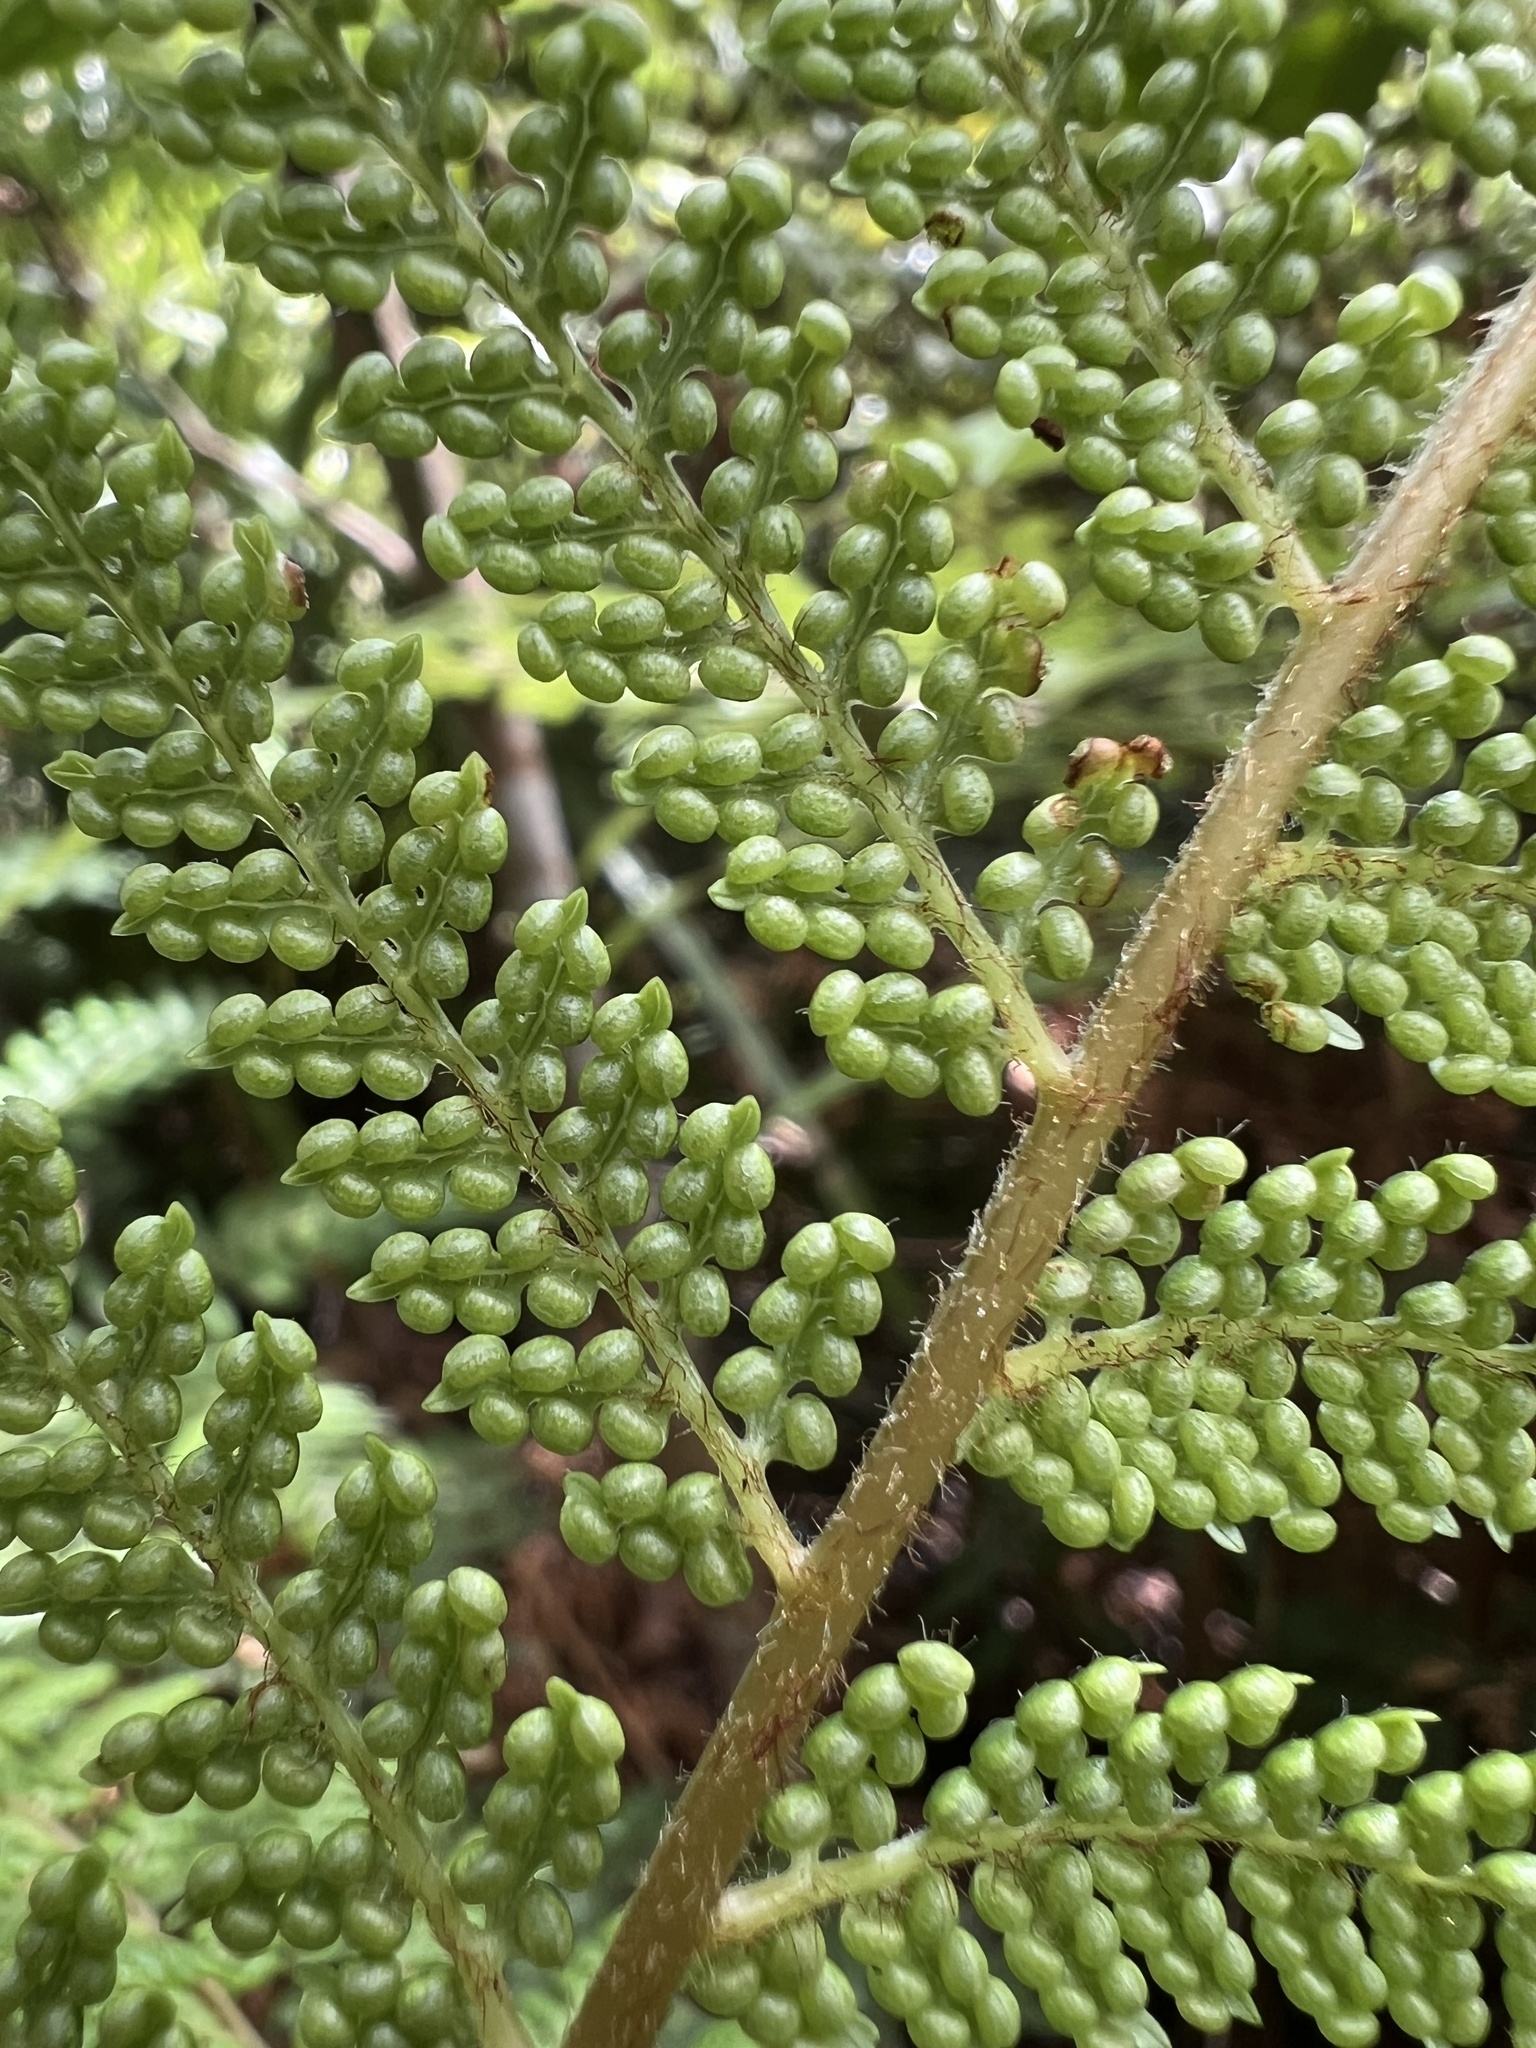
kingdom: Plantae
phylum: Tracheophyta
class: Polypodiopsida
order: Cyatheales
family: Dicksoniaceae
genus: Dicksonia
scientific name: Dicksonia lanata
